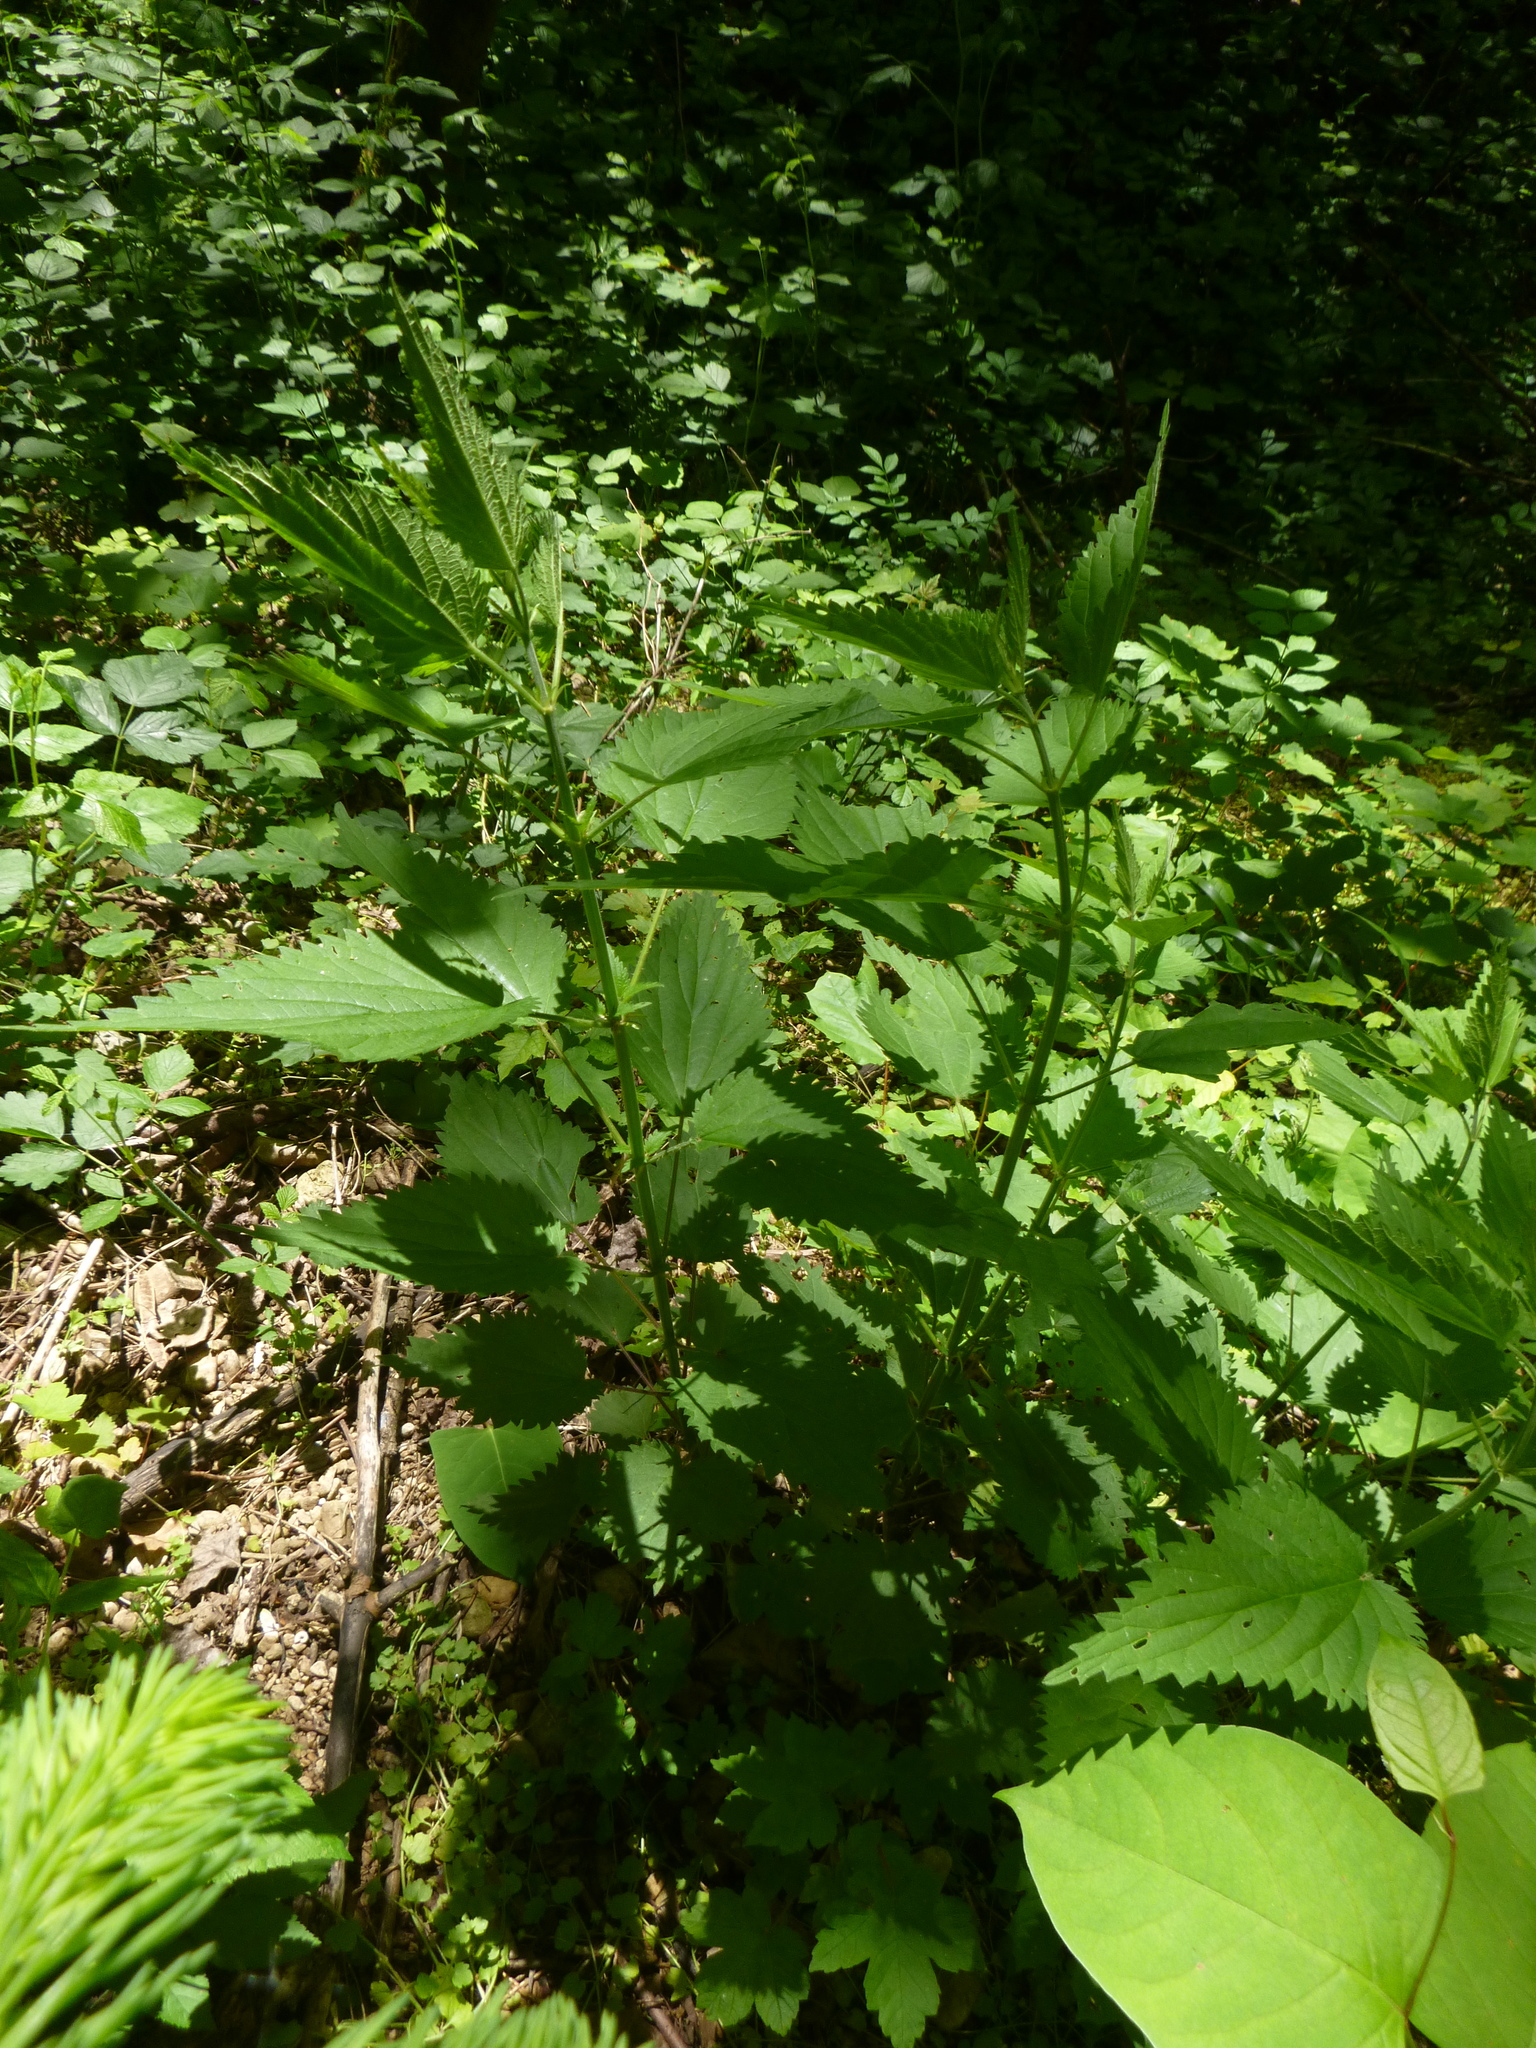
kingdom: Plantae
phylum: Tracheophyta
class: Magnoliopsida
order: Rosales
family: Urticaceae
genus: Urtica
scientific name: Urtica dioica
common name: Common nettle
